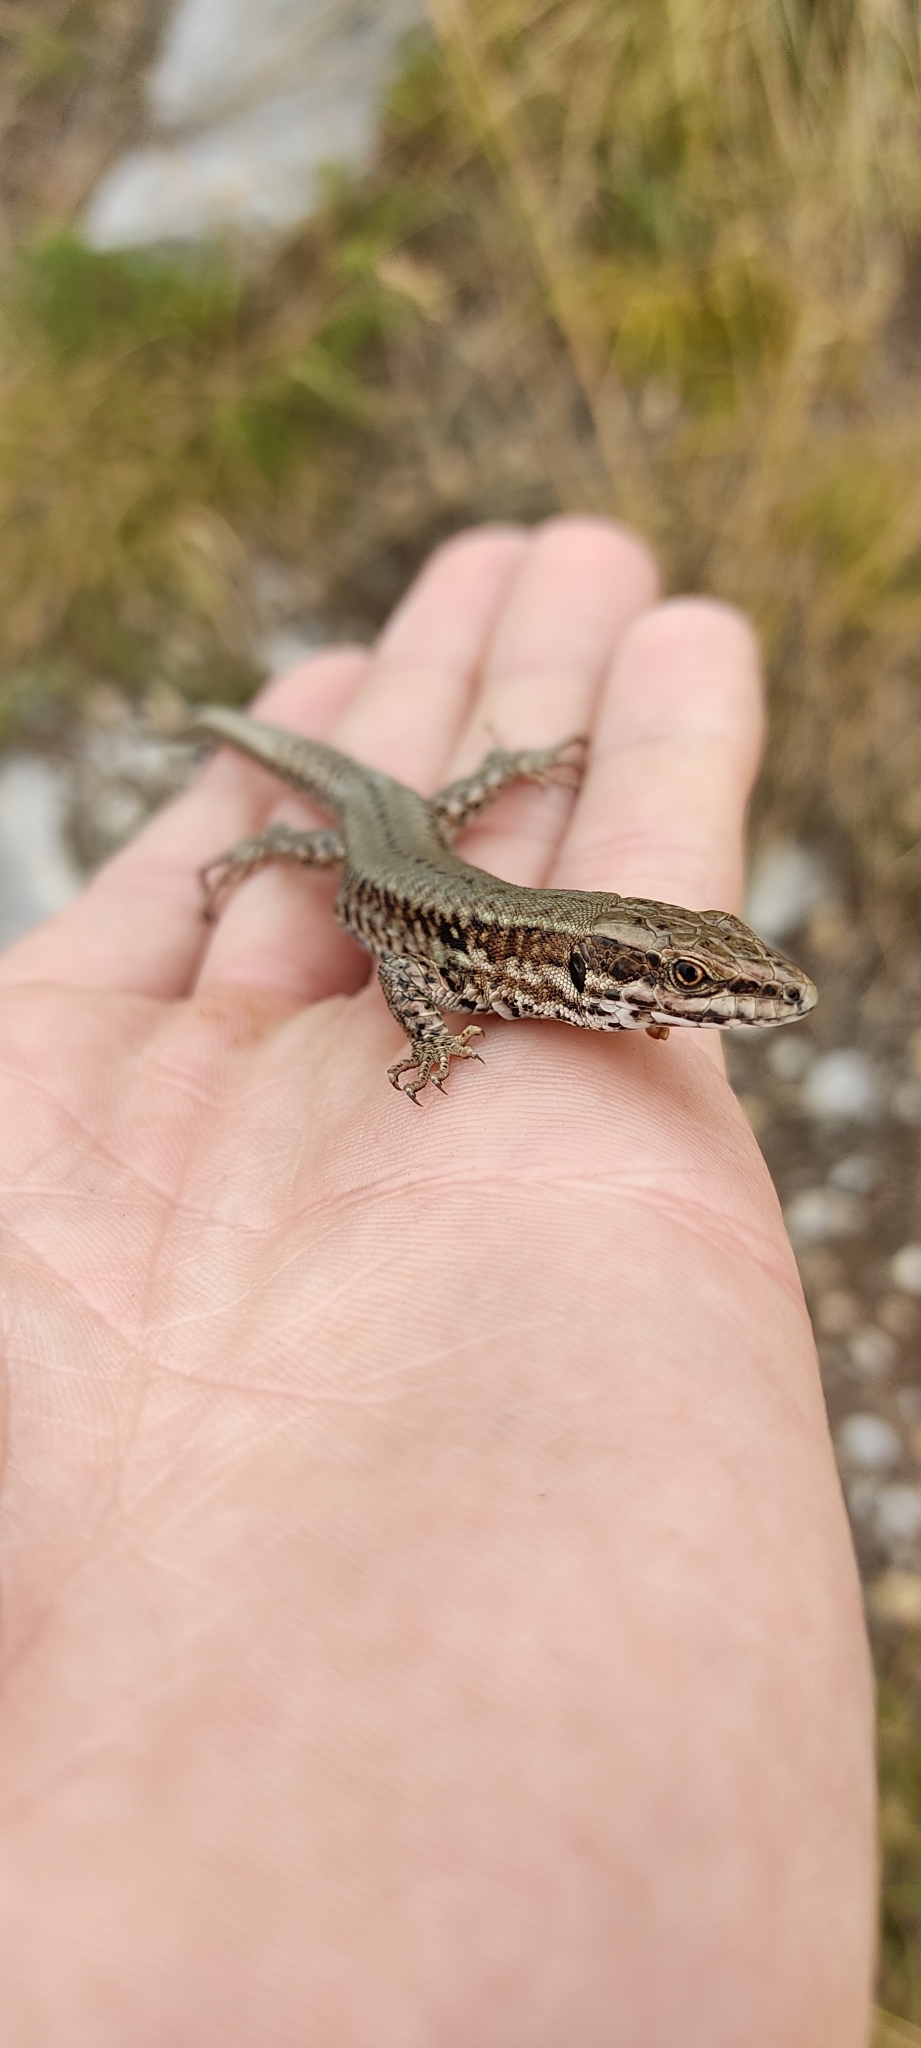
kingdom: Animalia
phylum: Chordata
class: Squamata
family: Lacertidae
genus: Podarcis
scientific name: Podarcis muralis
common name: Common wall lizard
